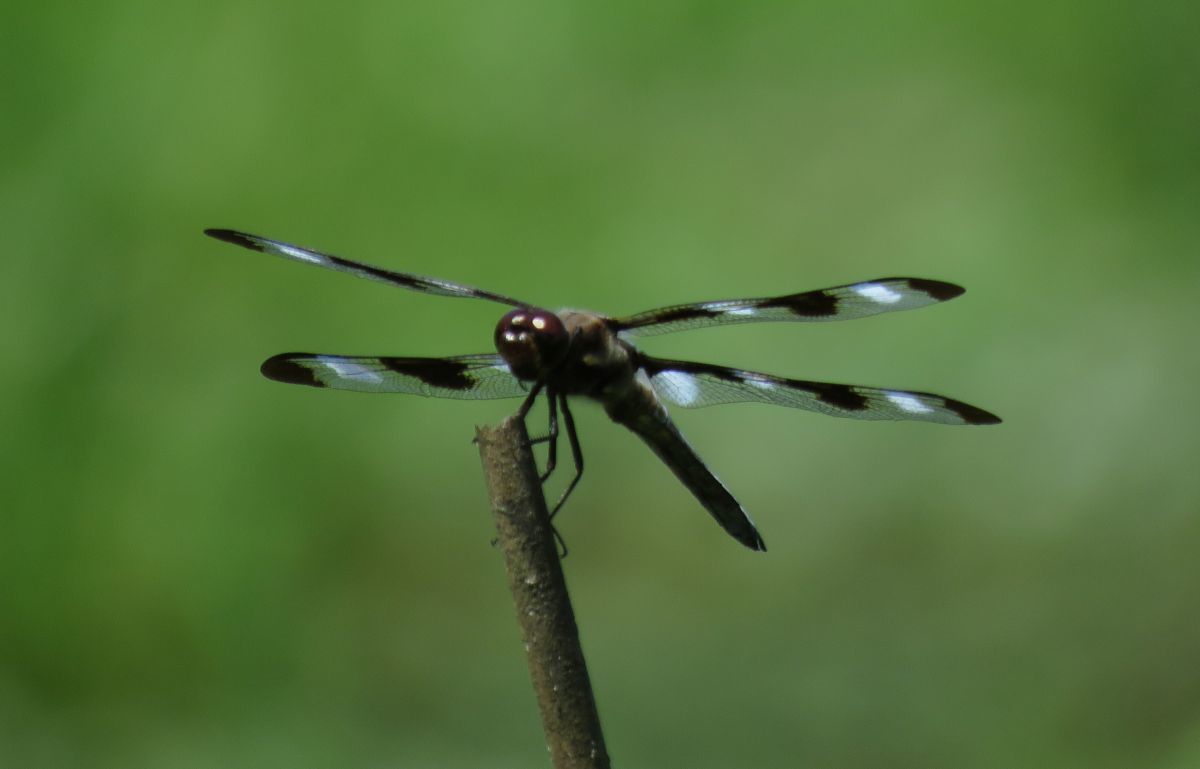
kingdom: Animalia
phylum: Arthropoda
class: Insecta
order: Odonata
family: Libellulidae
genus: Libellula
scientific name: Libellula pulchella
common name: Twelve-spotted skimmer
